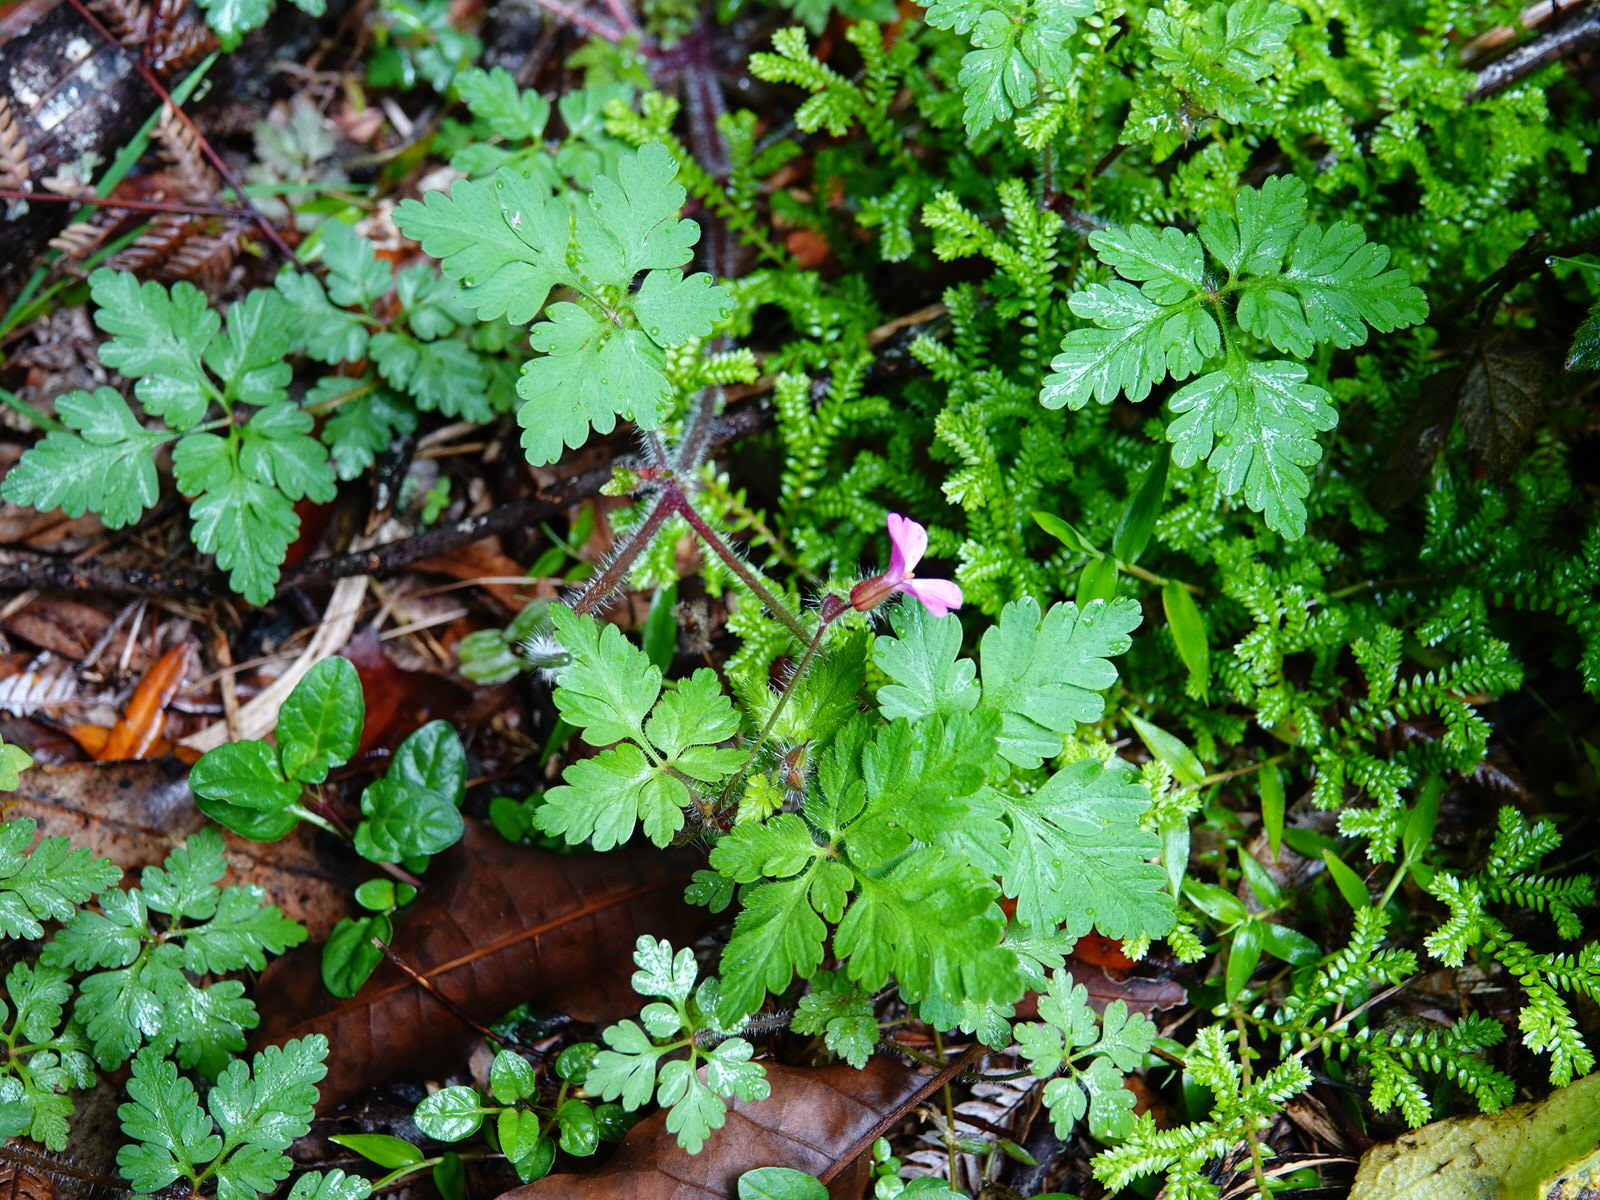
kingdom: Plantae
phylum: Tracheophyta
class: Magnoliopsida
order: Geraniales
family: Geraniaceae
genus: Geranium
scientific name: Geranium robertianum
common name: Herb-robert
